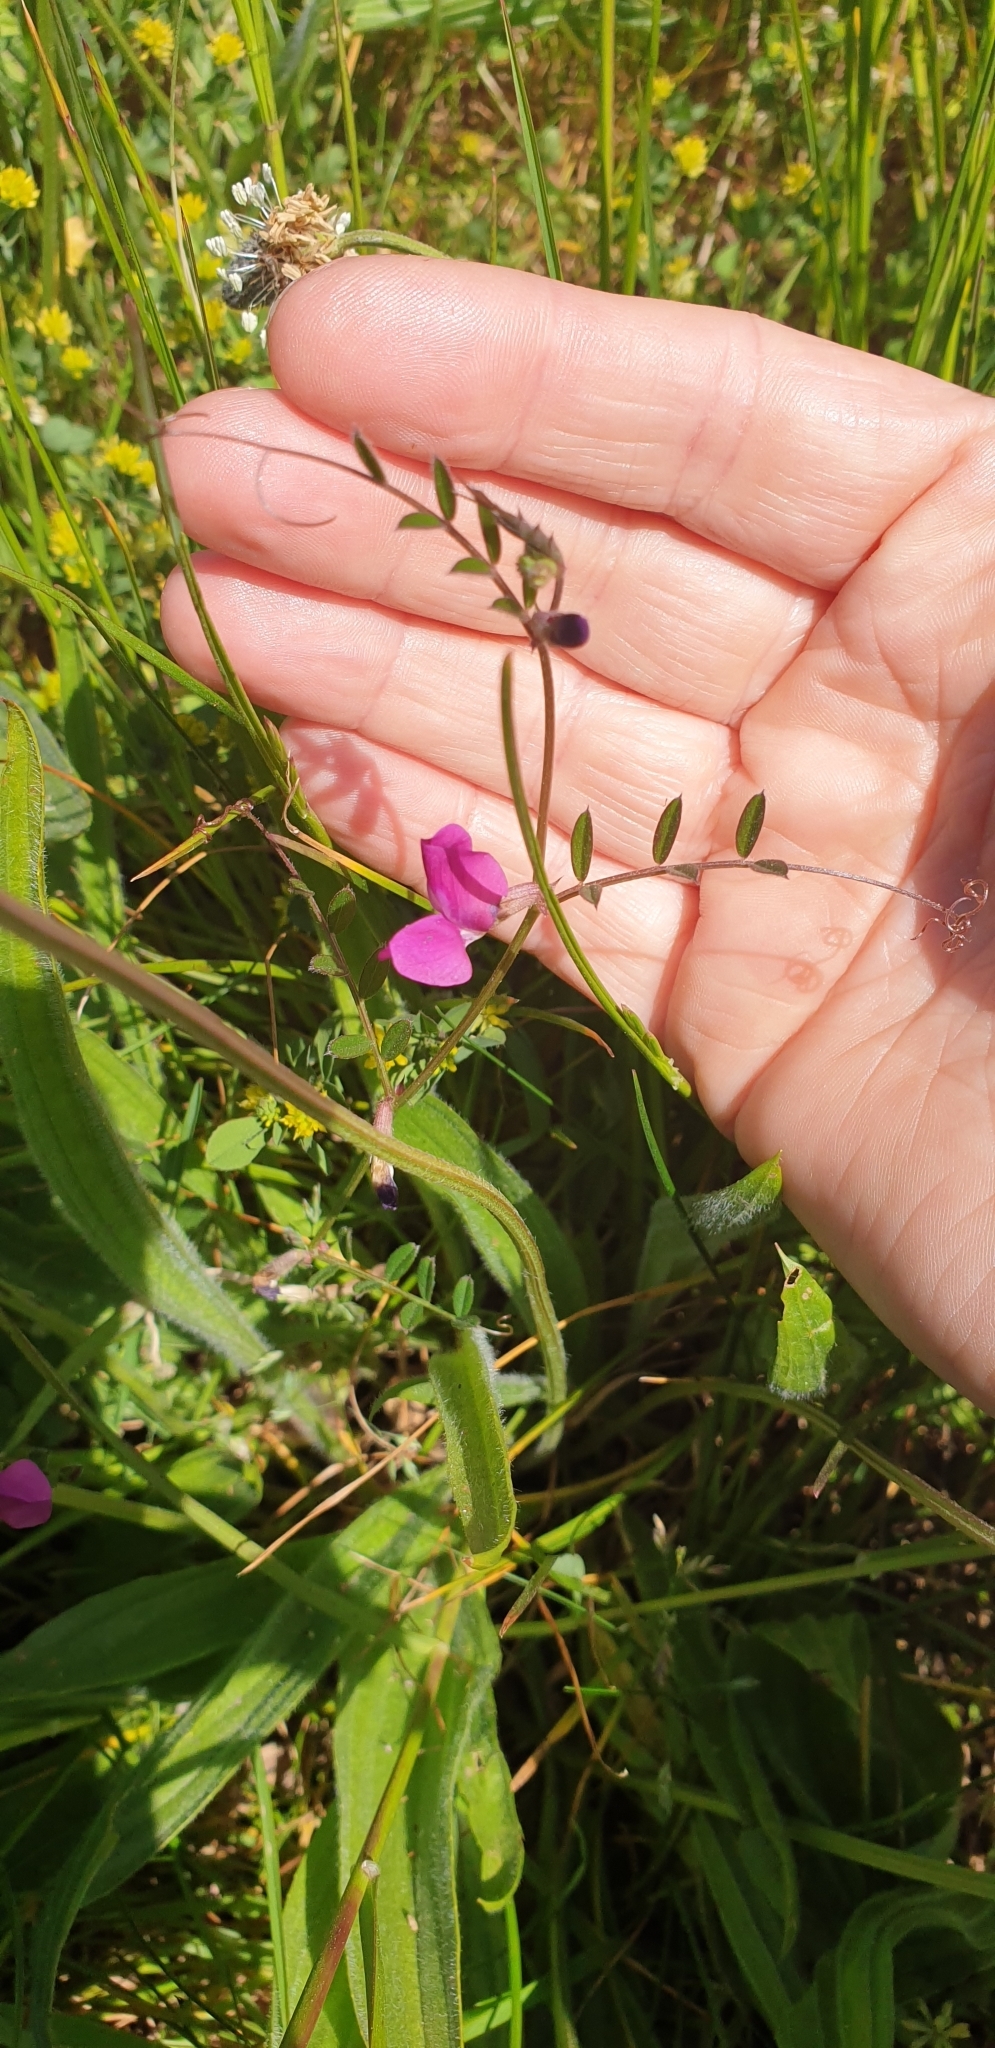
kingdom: Plantae
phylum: Tracheophyta
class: Magnoliopsida
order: Fabales
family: Fabaceae
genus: Vicia
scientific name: Vicia sativa
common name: Garden vetch
